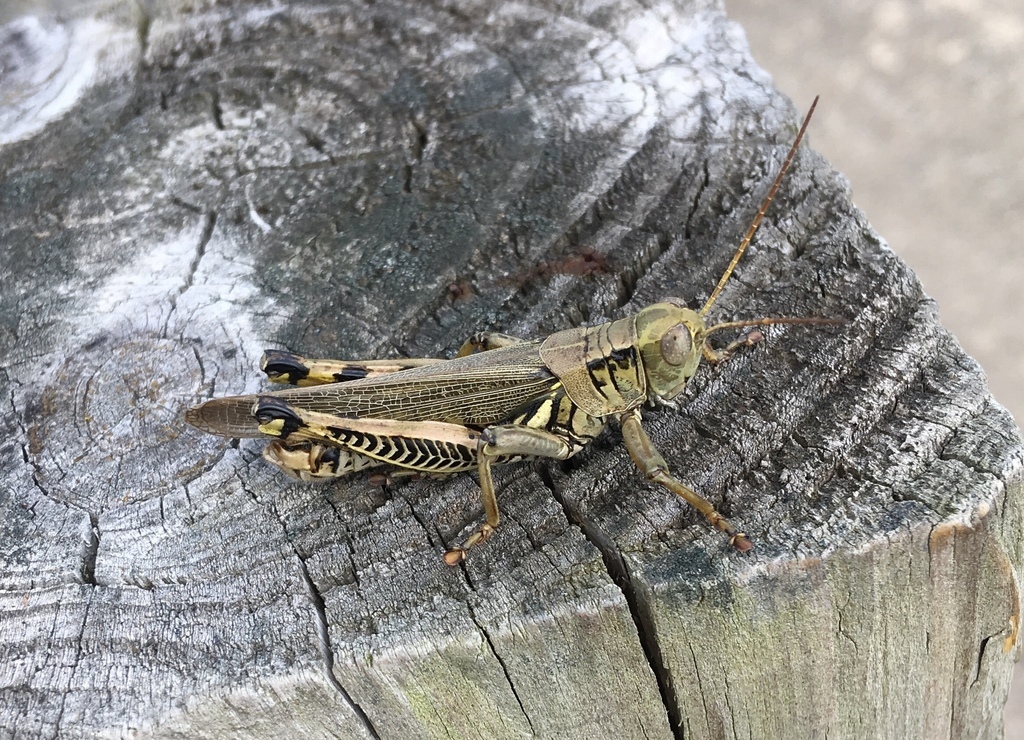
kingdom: Animalia
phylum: Arthropoda
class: Insecta
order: Orthoptera
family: Acrididae
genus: Melanoplus
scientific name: Melanoplus differentialis
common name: Differential grasshopper
